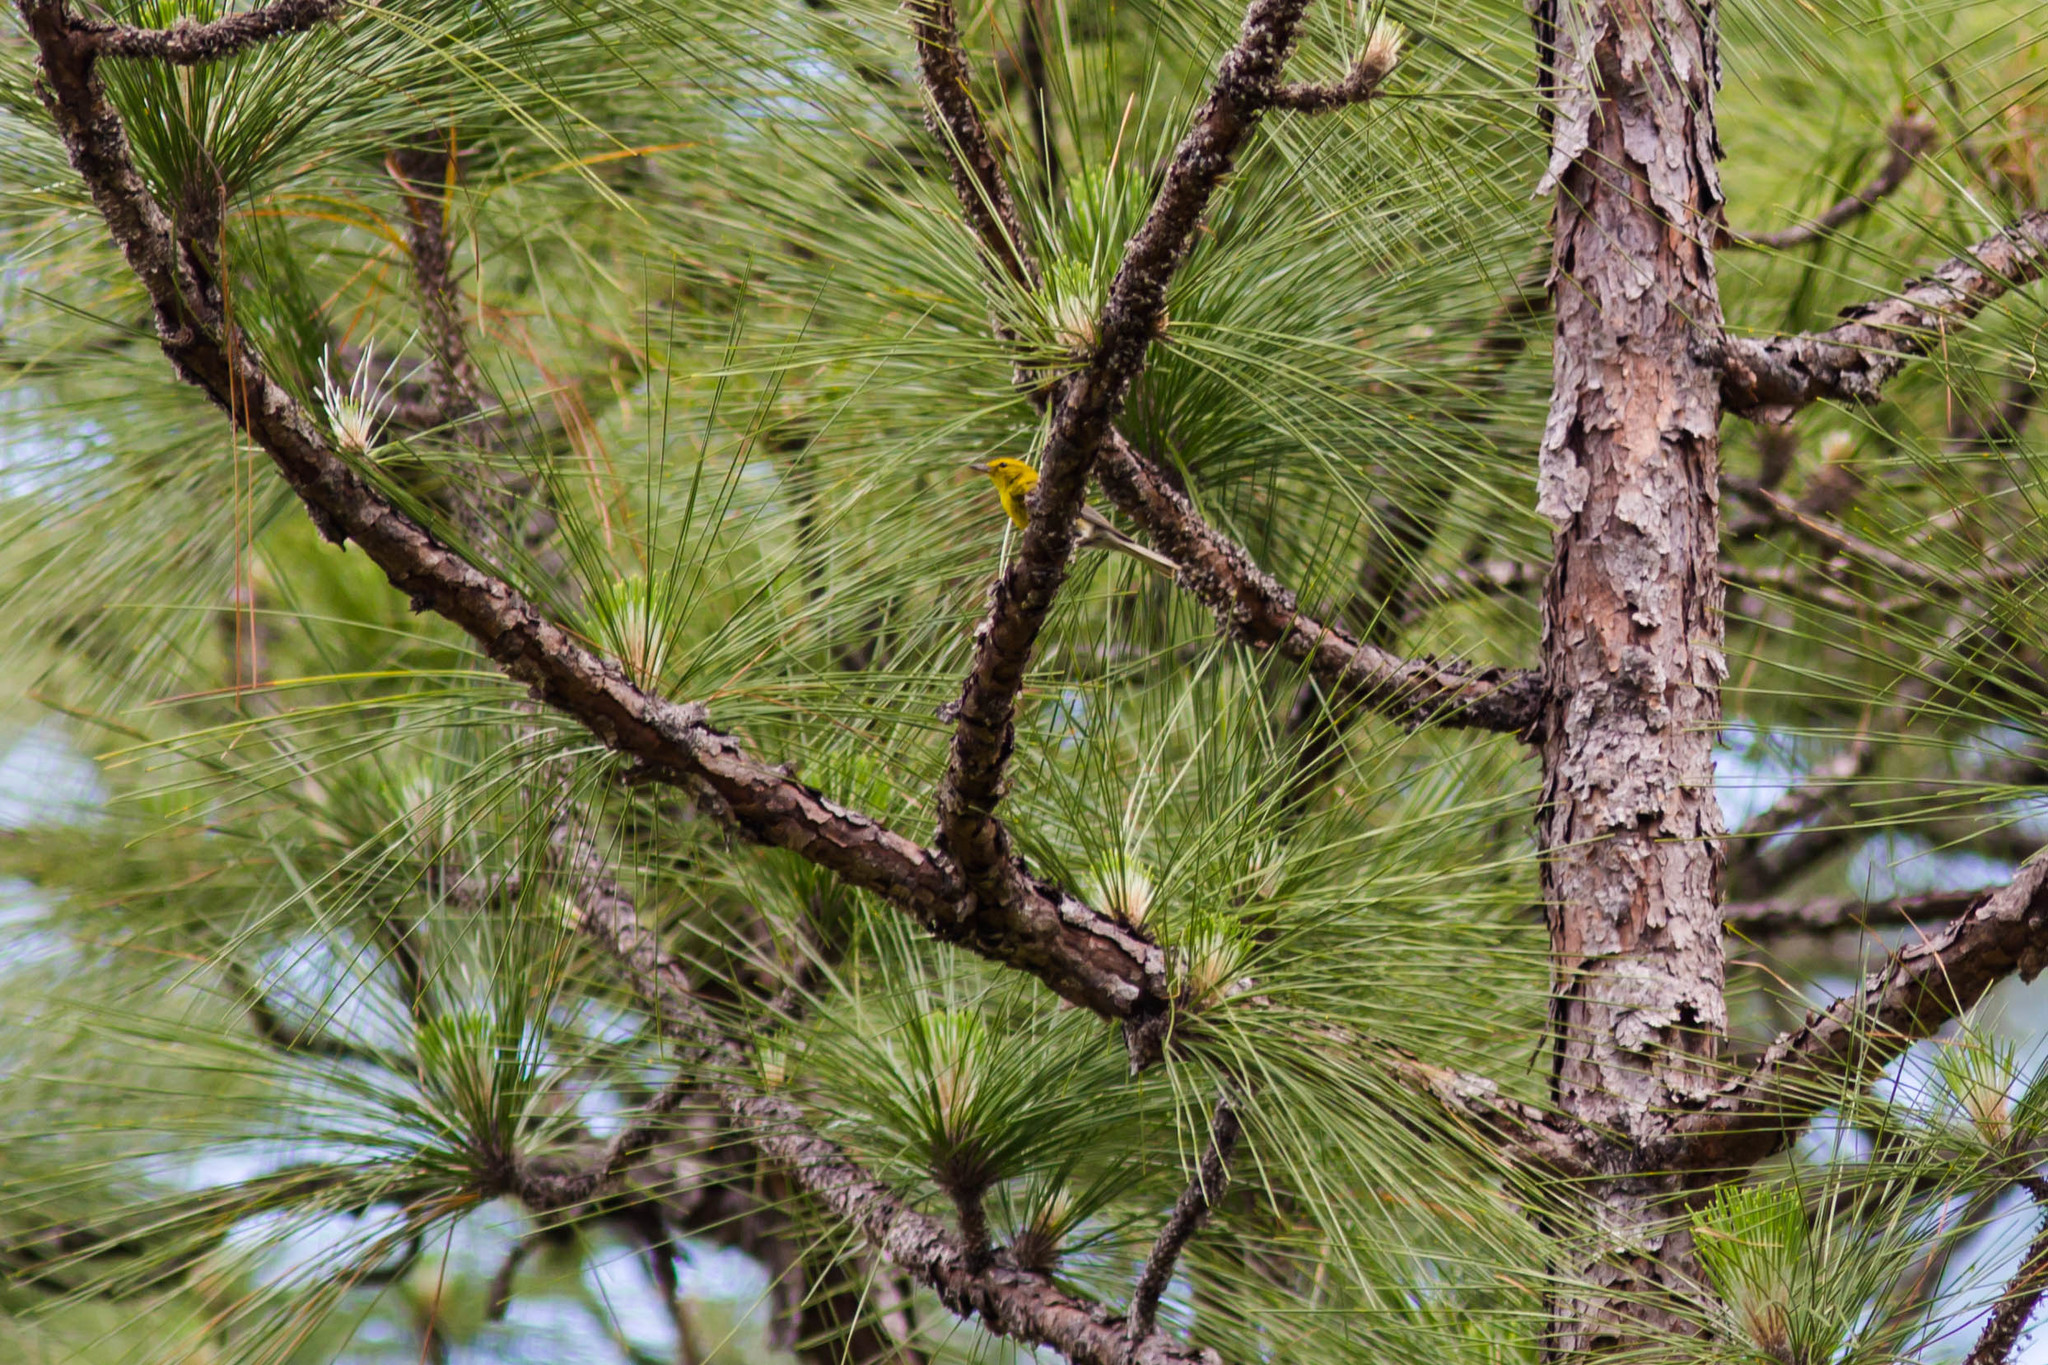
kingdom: Animalia
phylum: Chordata
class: Aves
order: Passeriformes
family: Parulidae
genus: Setophaga
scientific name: Setophaga pinus
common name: Pine warbler
